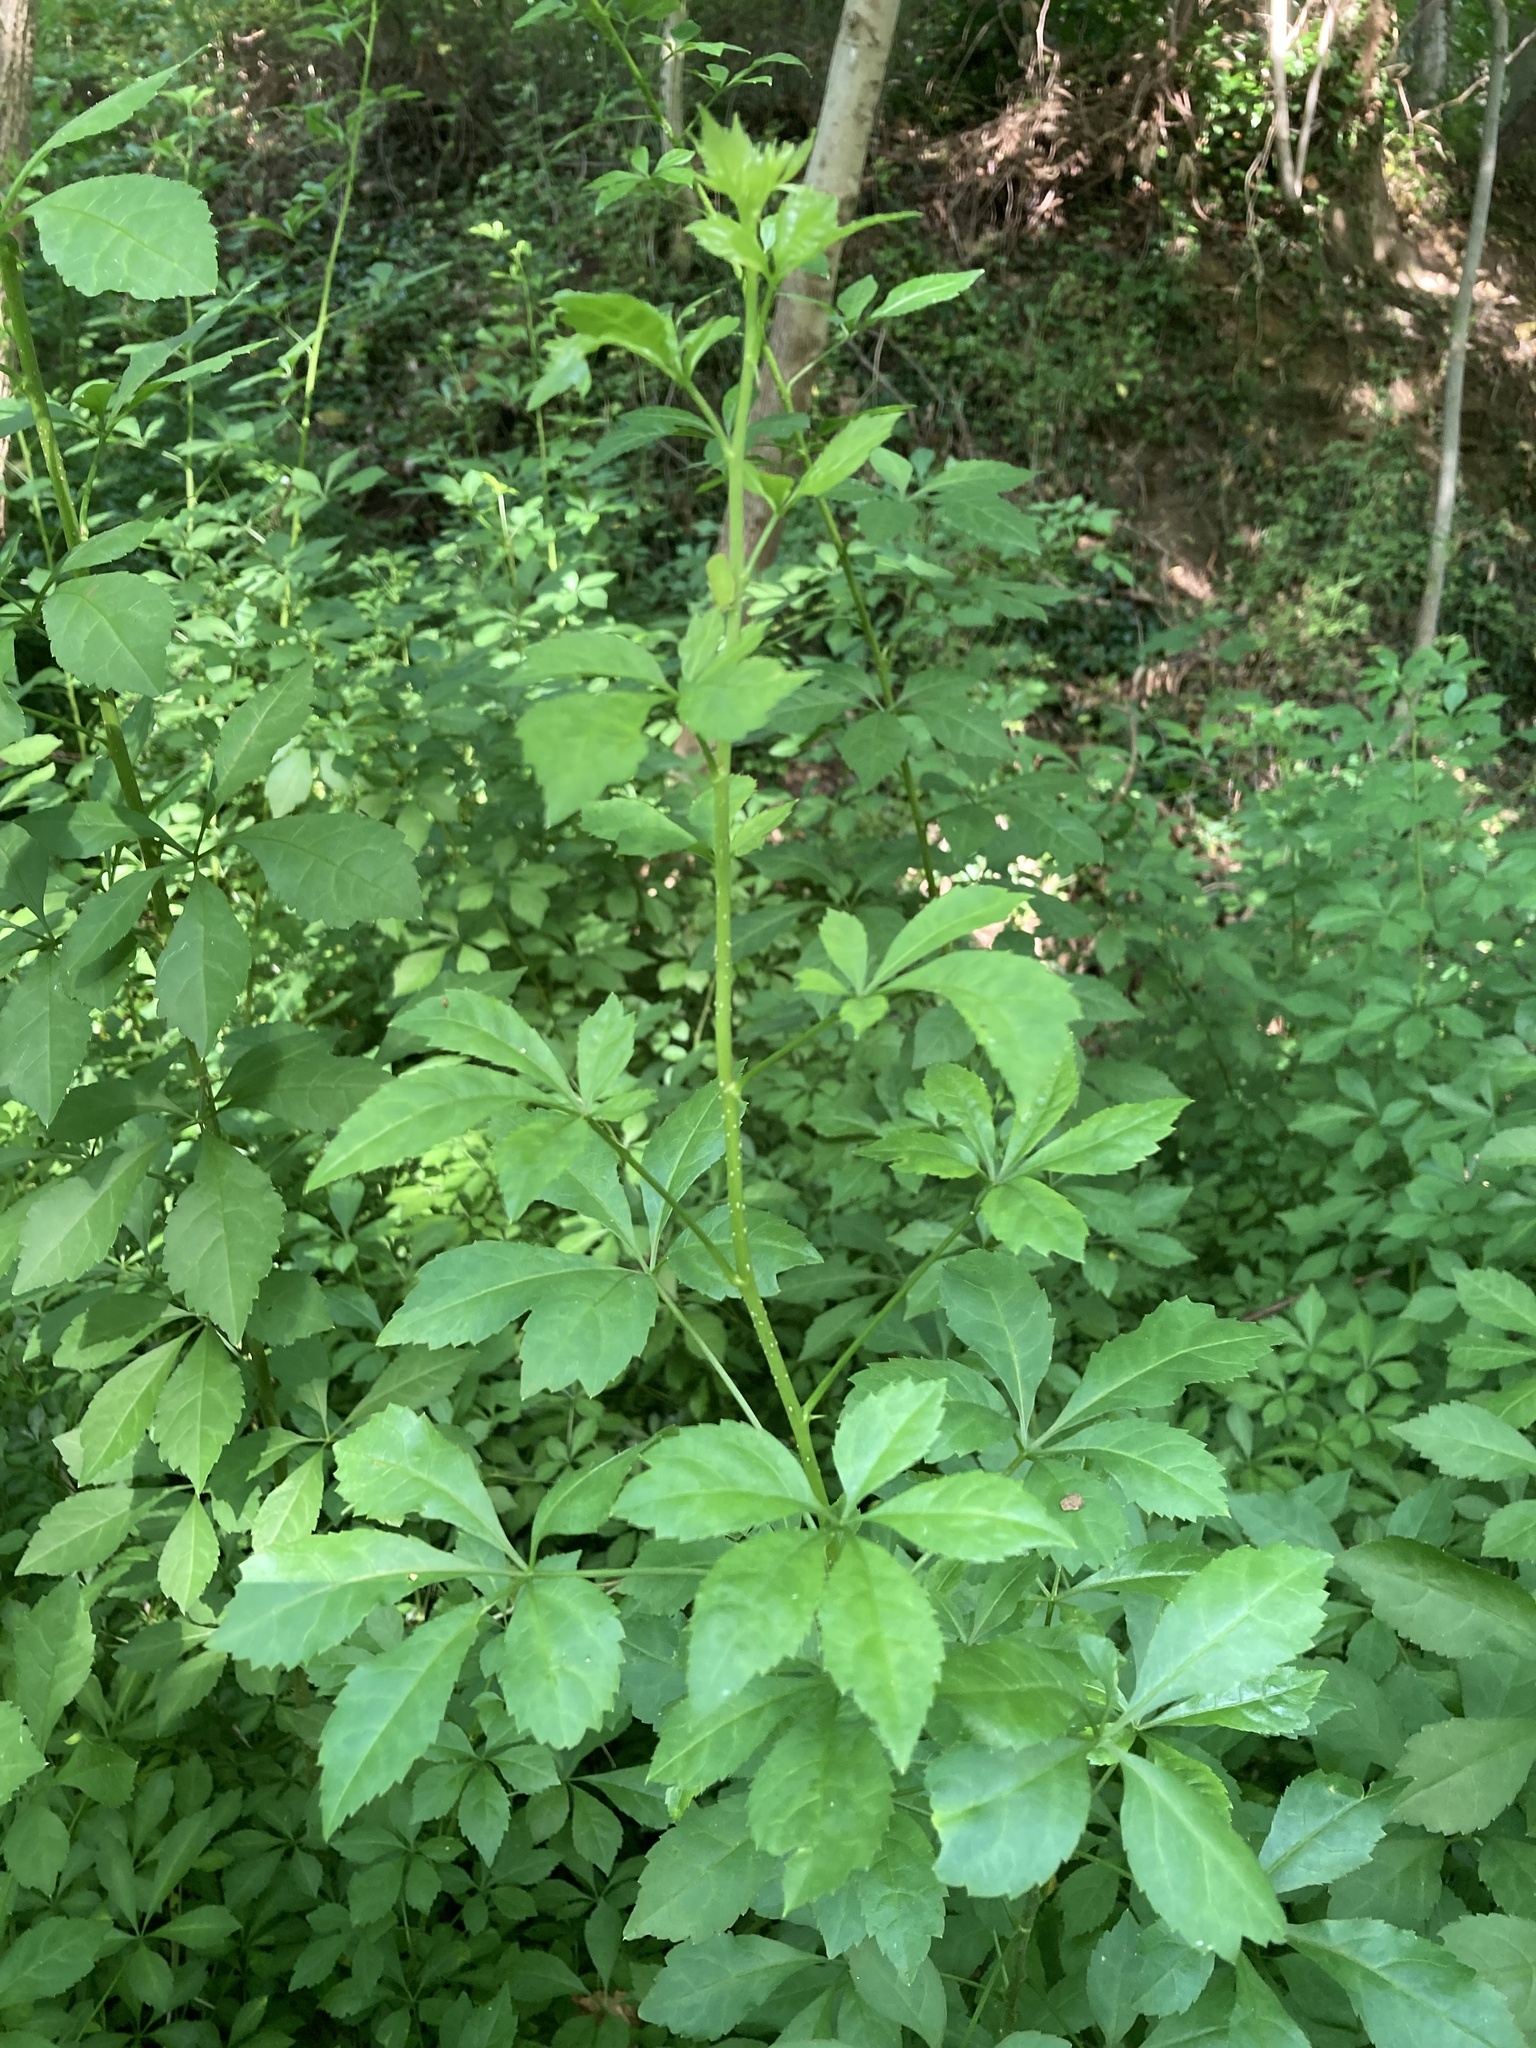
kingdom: Plantae
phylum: Tracheophyta
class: Magnoliopsida
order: Apiales
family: Araliaceae
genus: Eleutherococcus
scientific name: Eleutherococcus sieboldianus
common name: Ginseng
